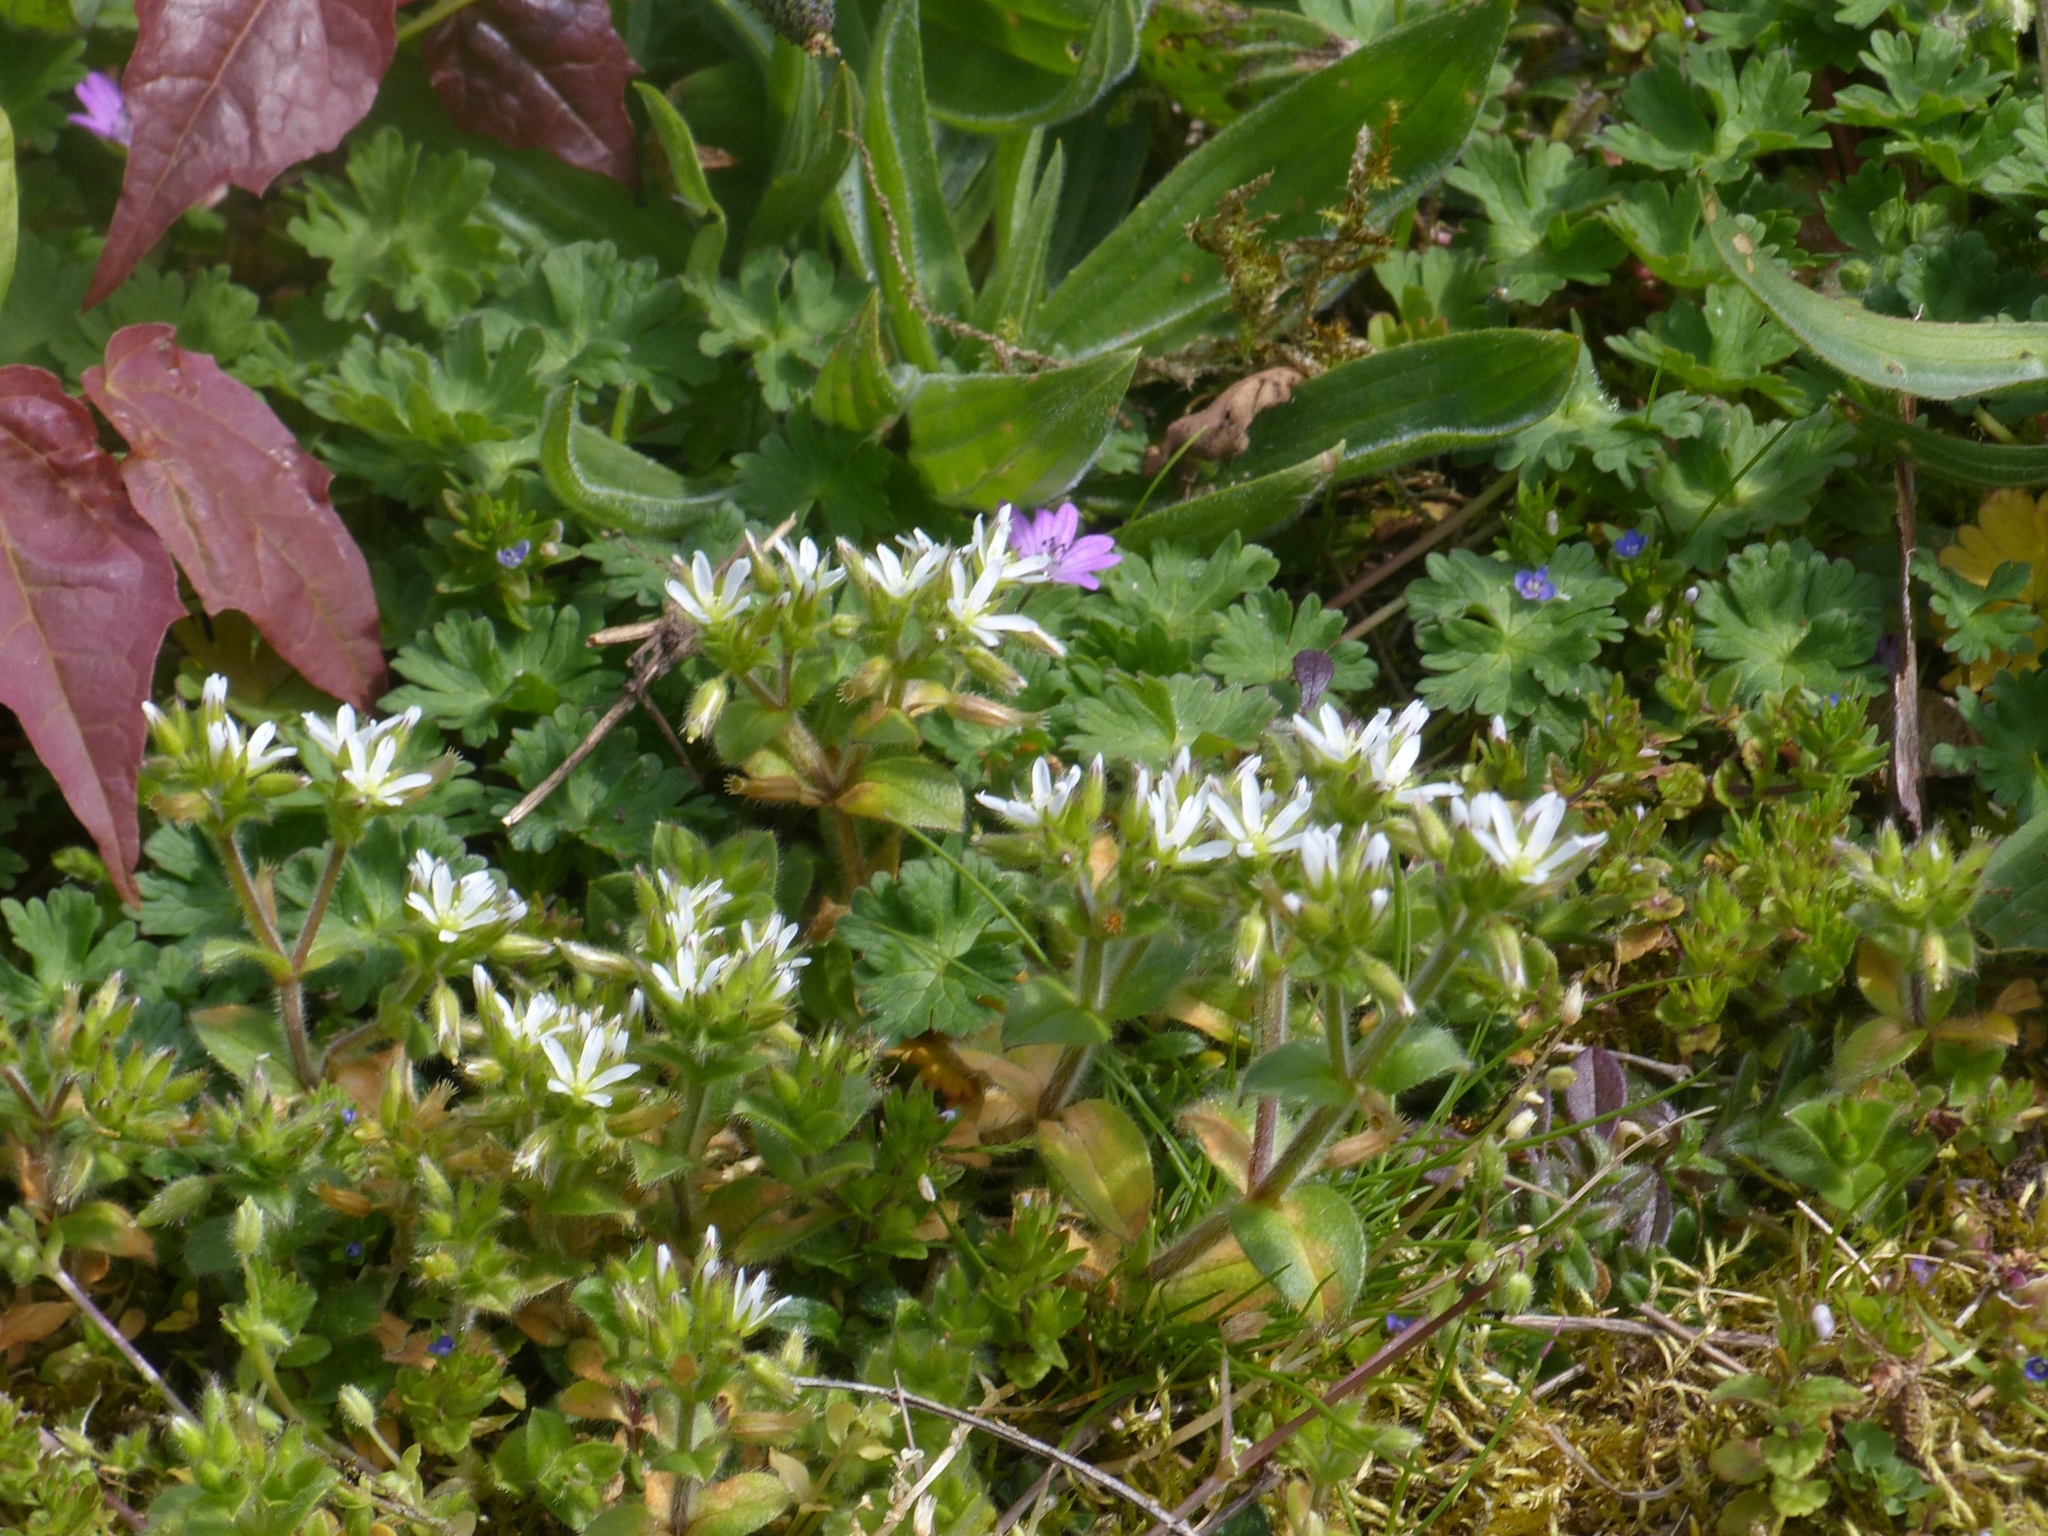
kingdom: Plantae
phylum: Tracheophyta
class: Magnoliopsida
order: Caryophyllales
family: Caryophyllaceae
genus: Cerastium
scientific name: Cerastium glomeratum
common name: Sticky chickweed
